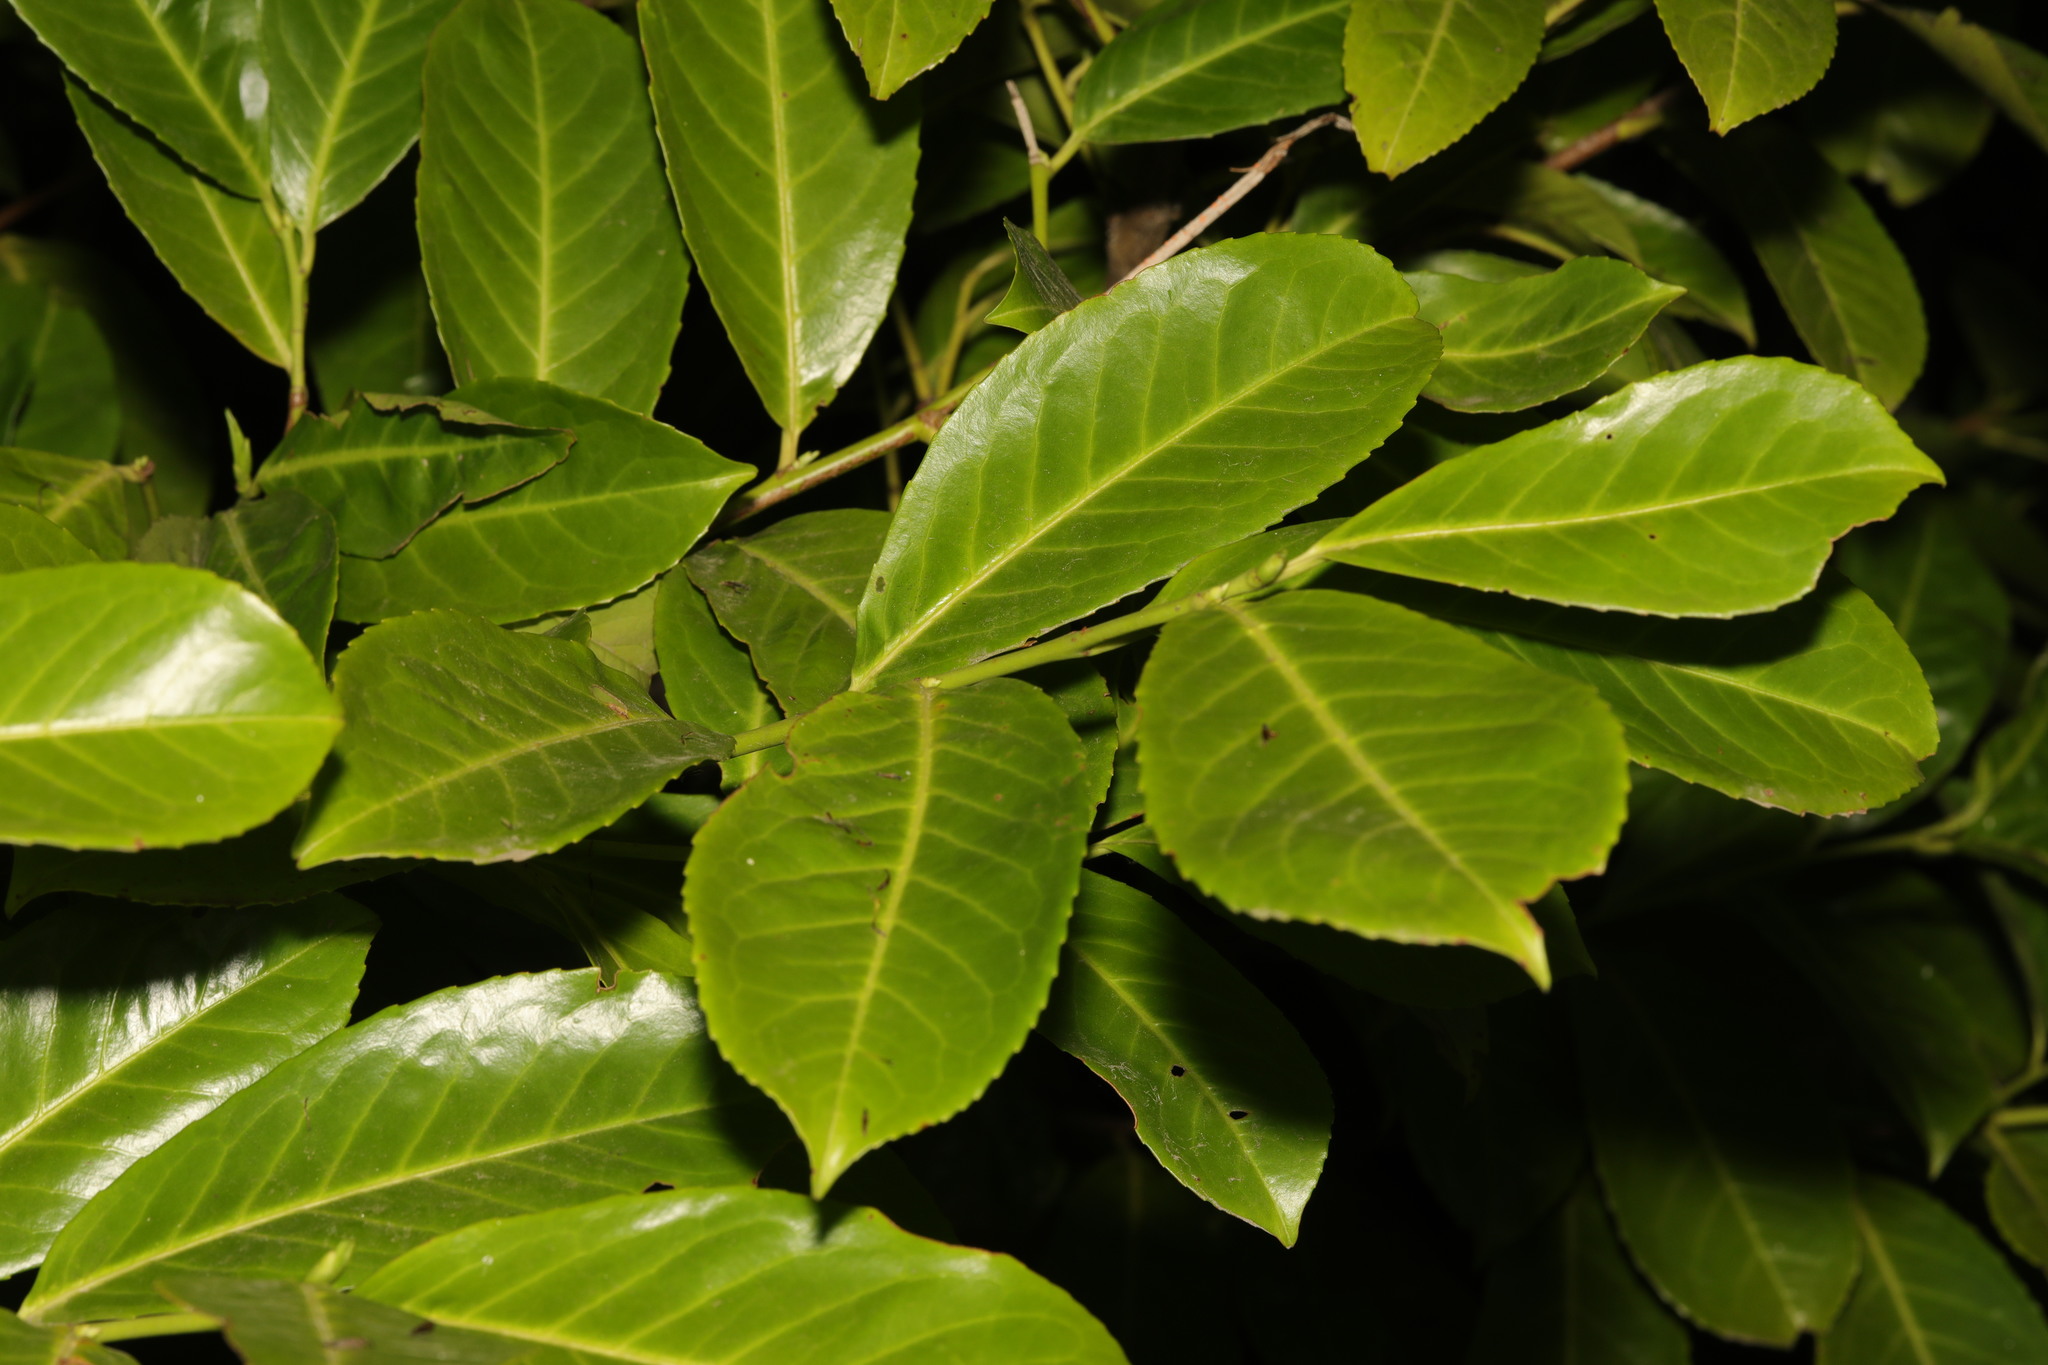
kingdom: Plantae
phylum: Tracheophyta
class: Magnoliopsida
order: Rosales
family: Rosaceae
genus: Prunus
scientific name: Prunus laurocerasus
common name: Cherry laurel
